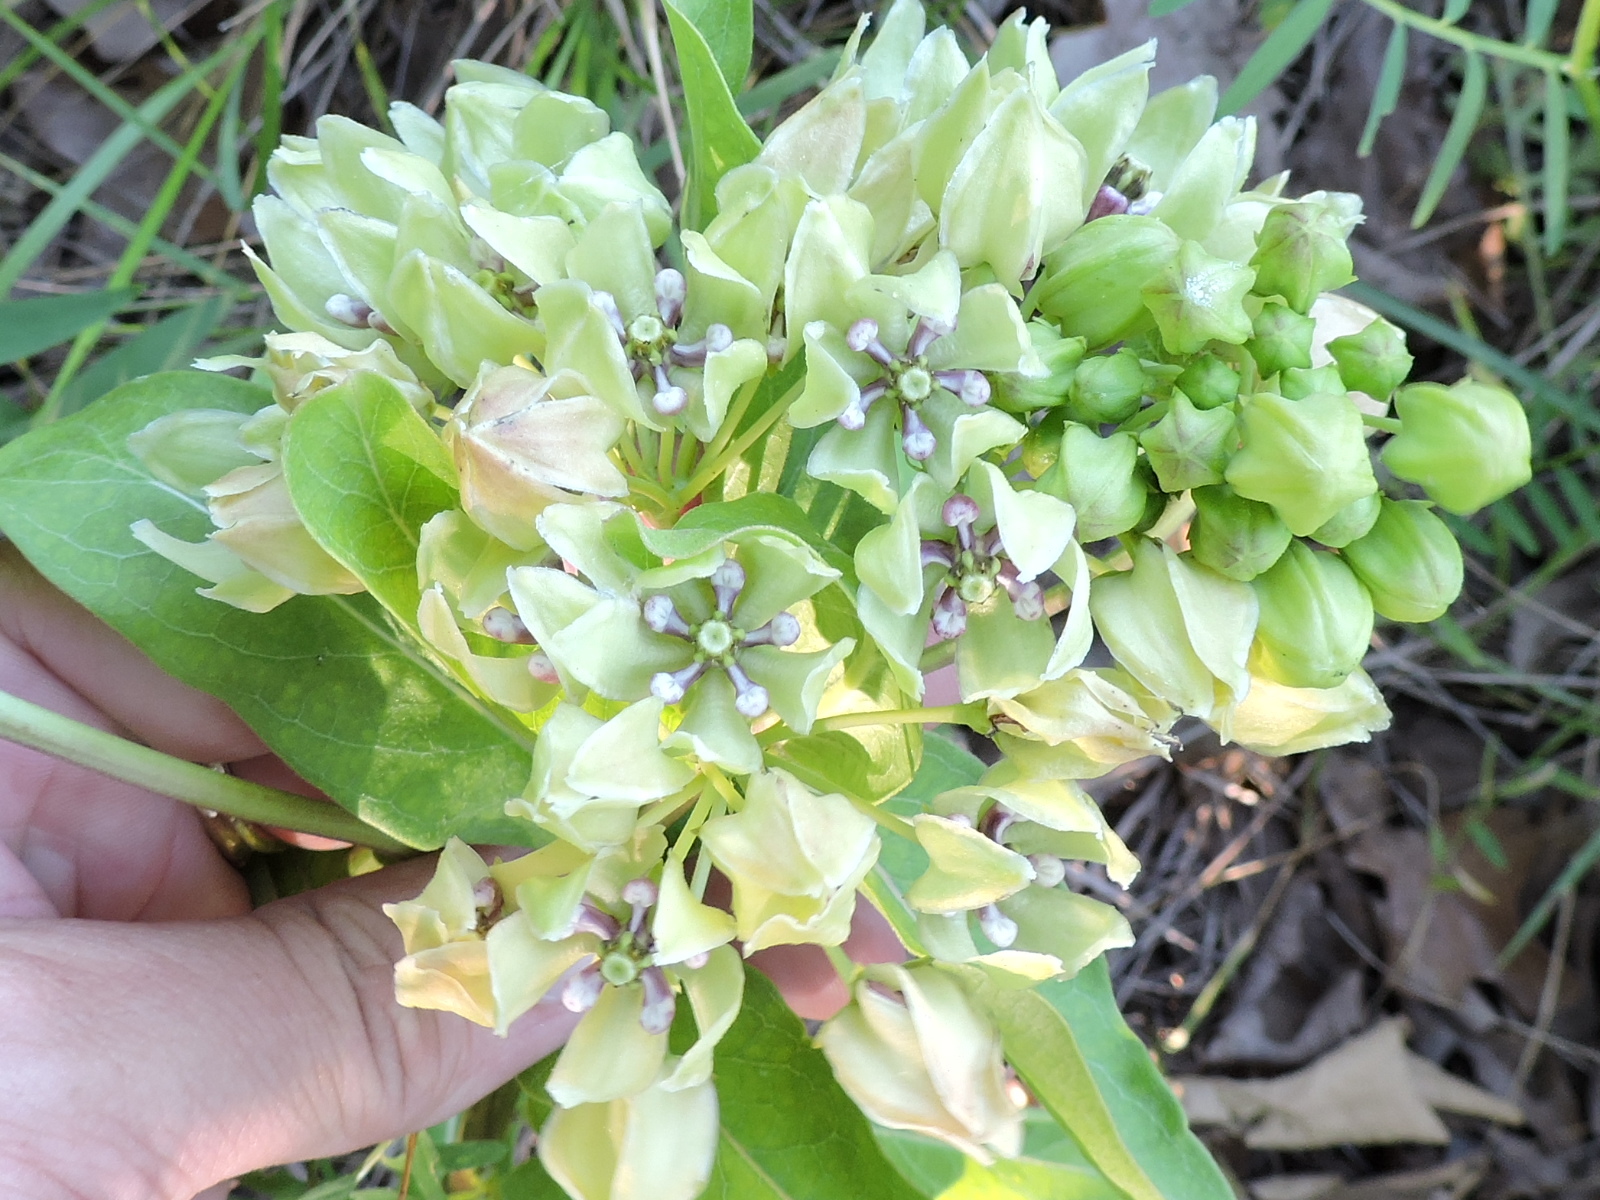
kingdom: Plantae
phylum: Tracheophyta
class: Magnoliopsida
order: Gentianales
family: Apocynaceae
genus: Asclepias
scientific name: Asclepias viridis
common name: Antelope-horns
